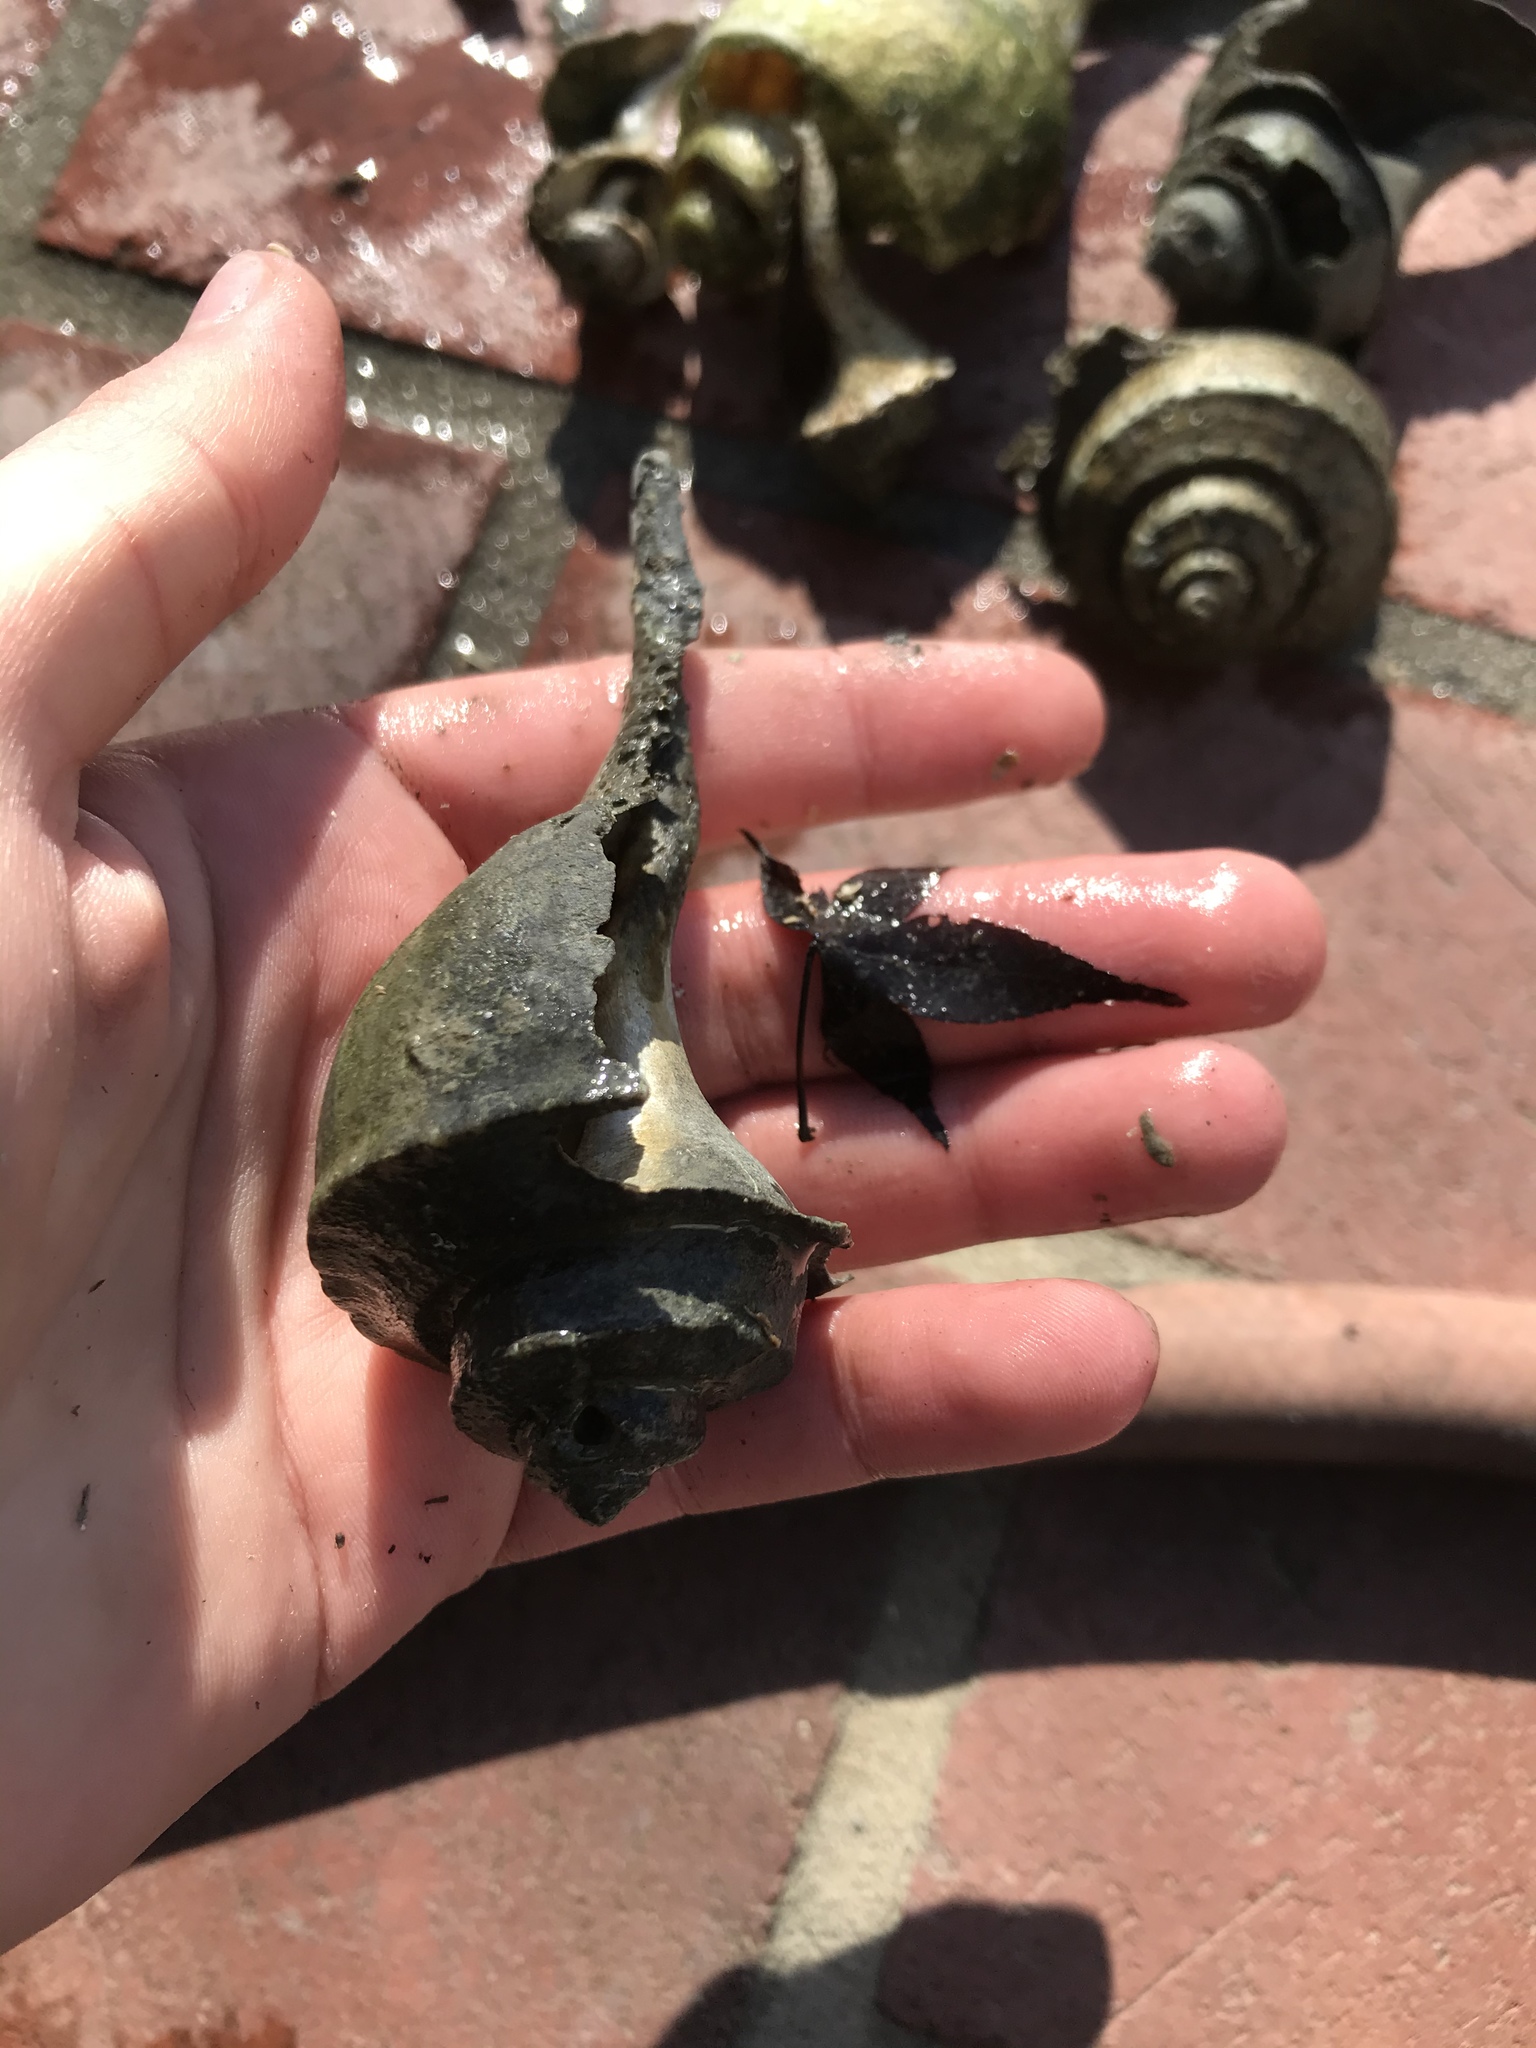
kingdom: Animalia
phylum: Mollusca
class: Gastropoda
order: Neogastropoda
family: Busyconidae
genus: Busycotypus
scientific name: Busycotypus canaliculatus
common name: Channeled whelk
